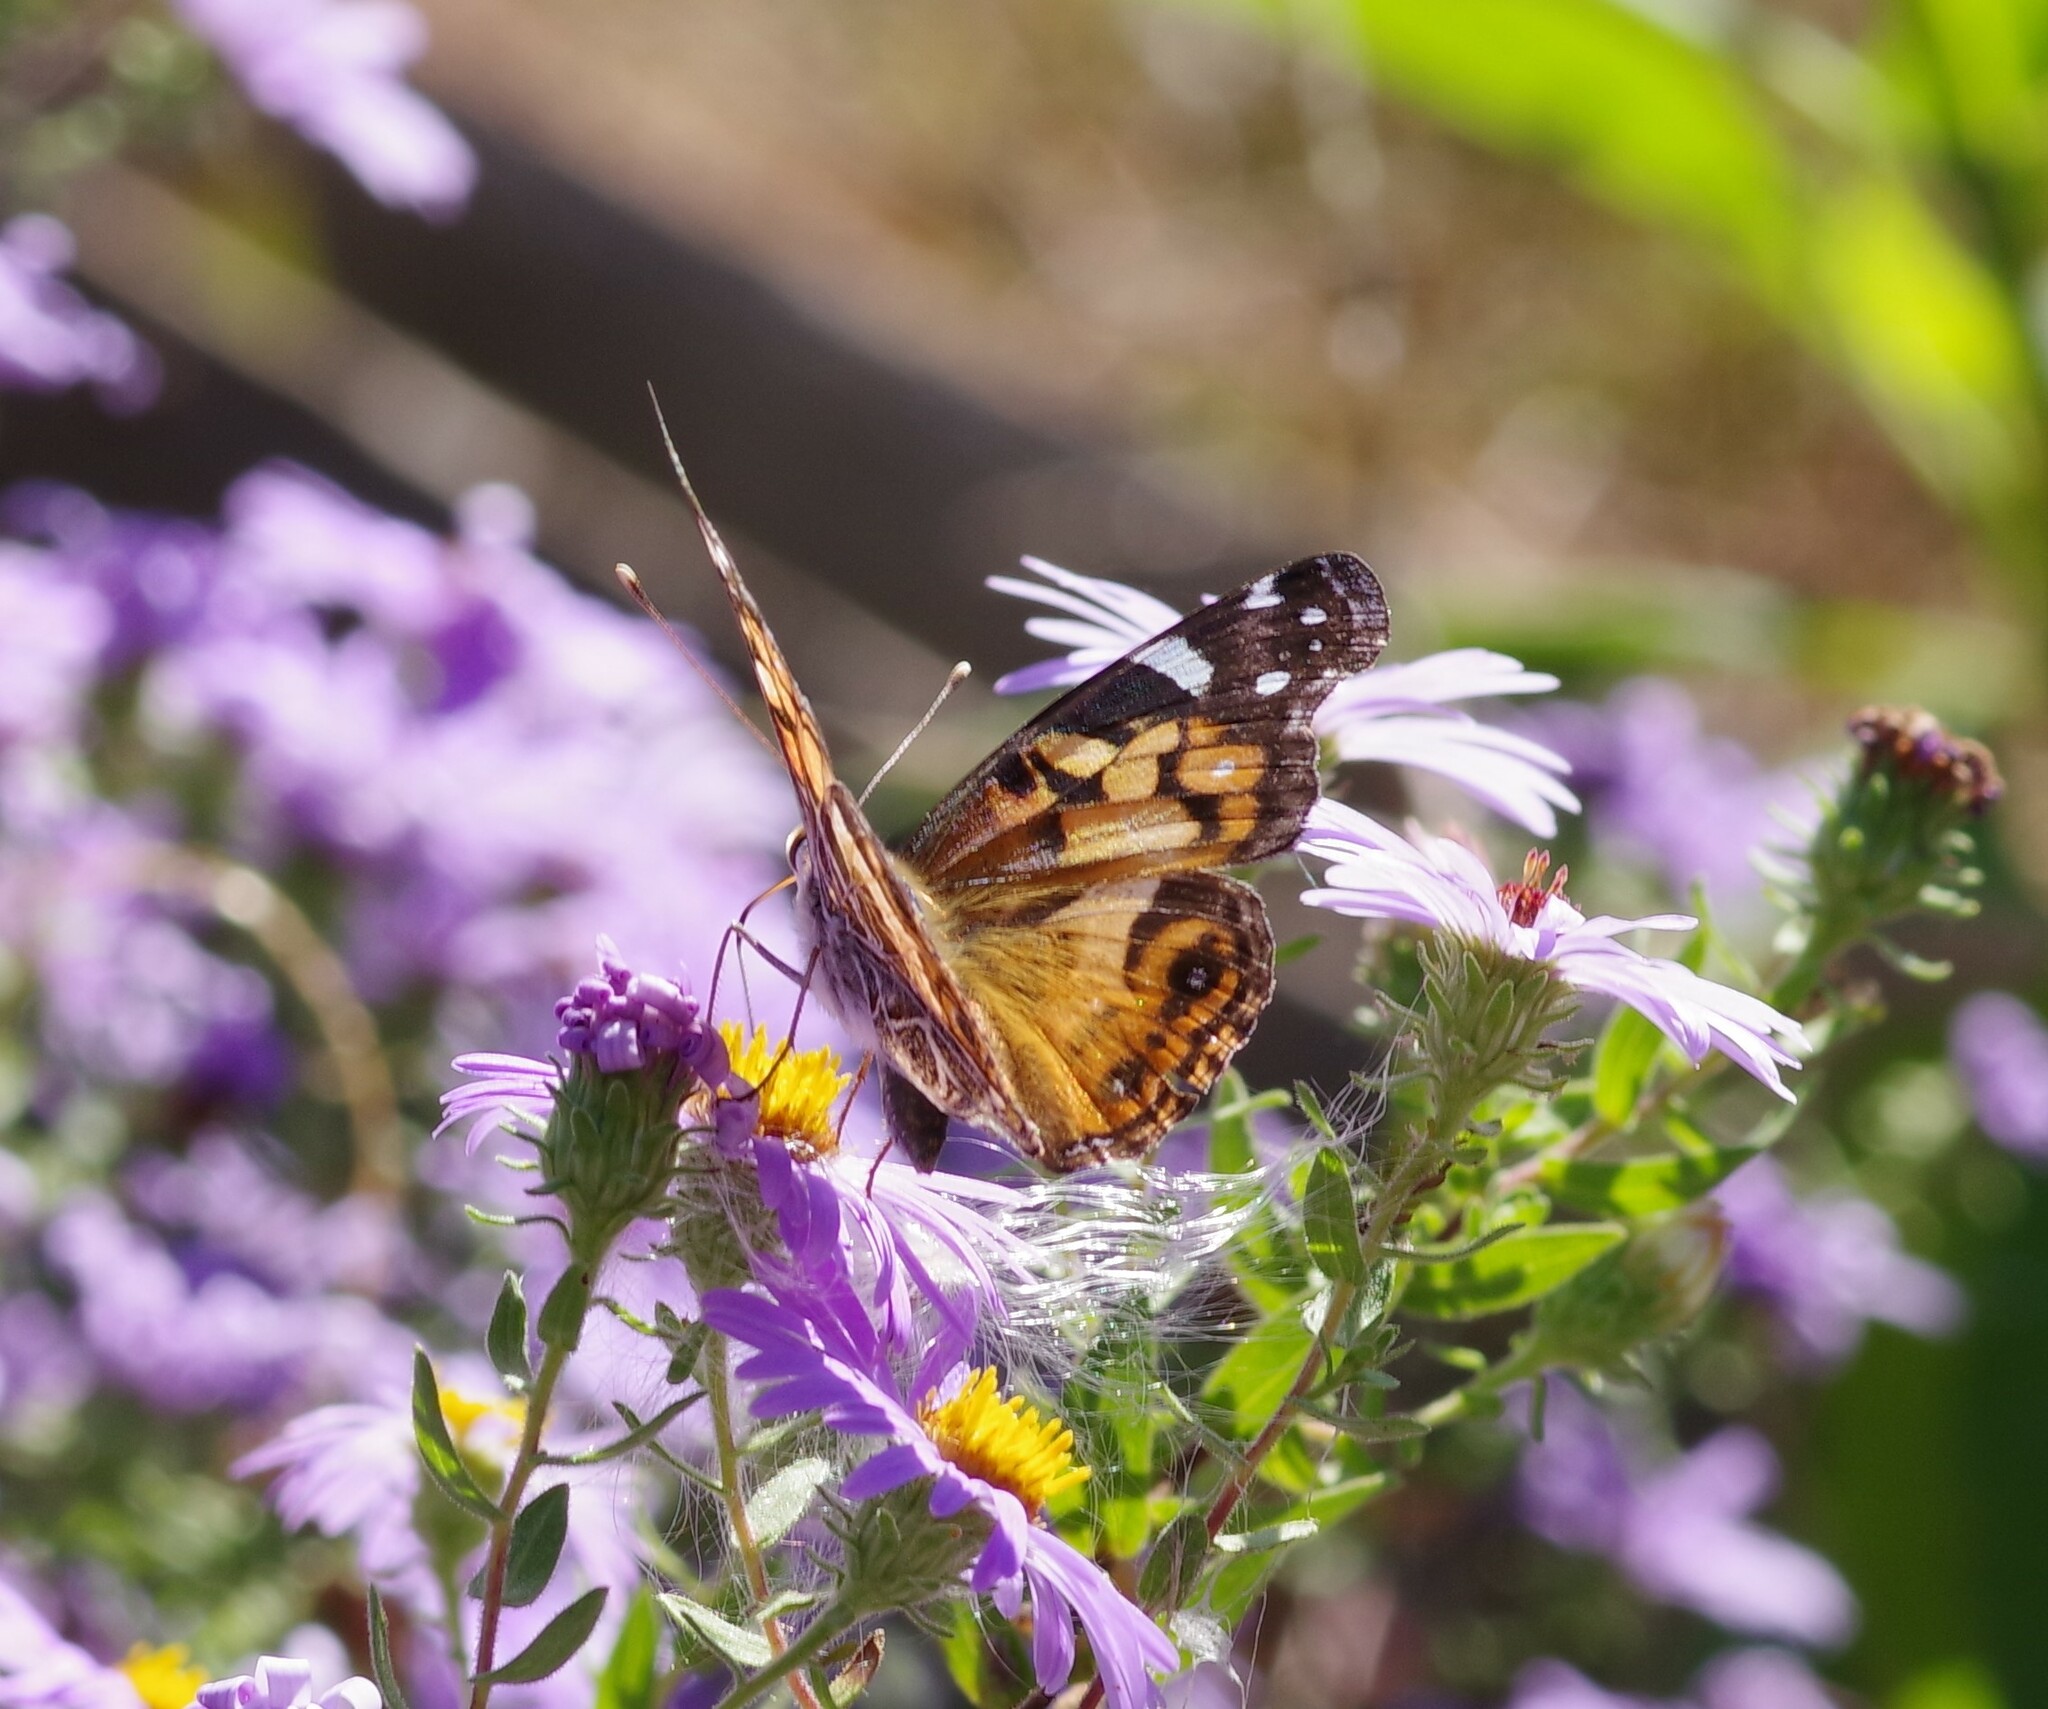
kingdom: Animalia
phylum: Arthropoda
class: Insecta
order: Lepidoptera
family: Nymphalidae
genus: Vanessa
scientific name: Vanessa virginiensis
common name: American lady
